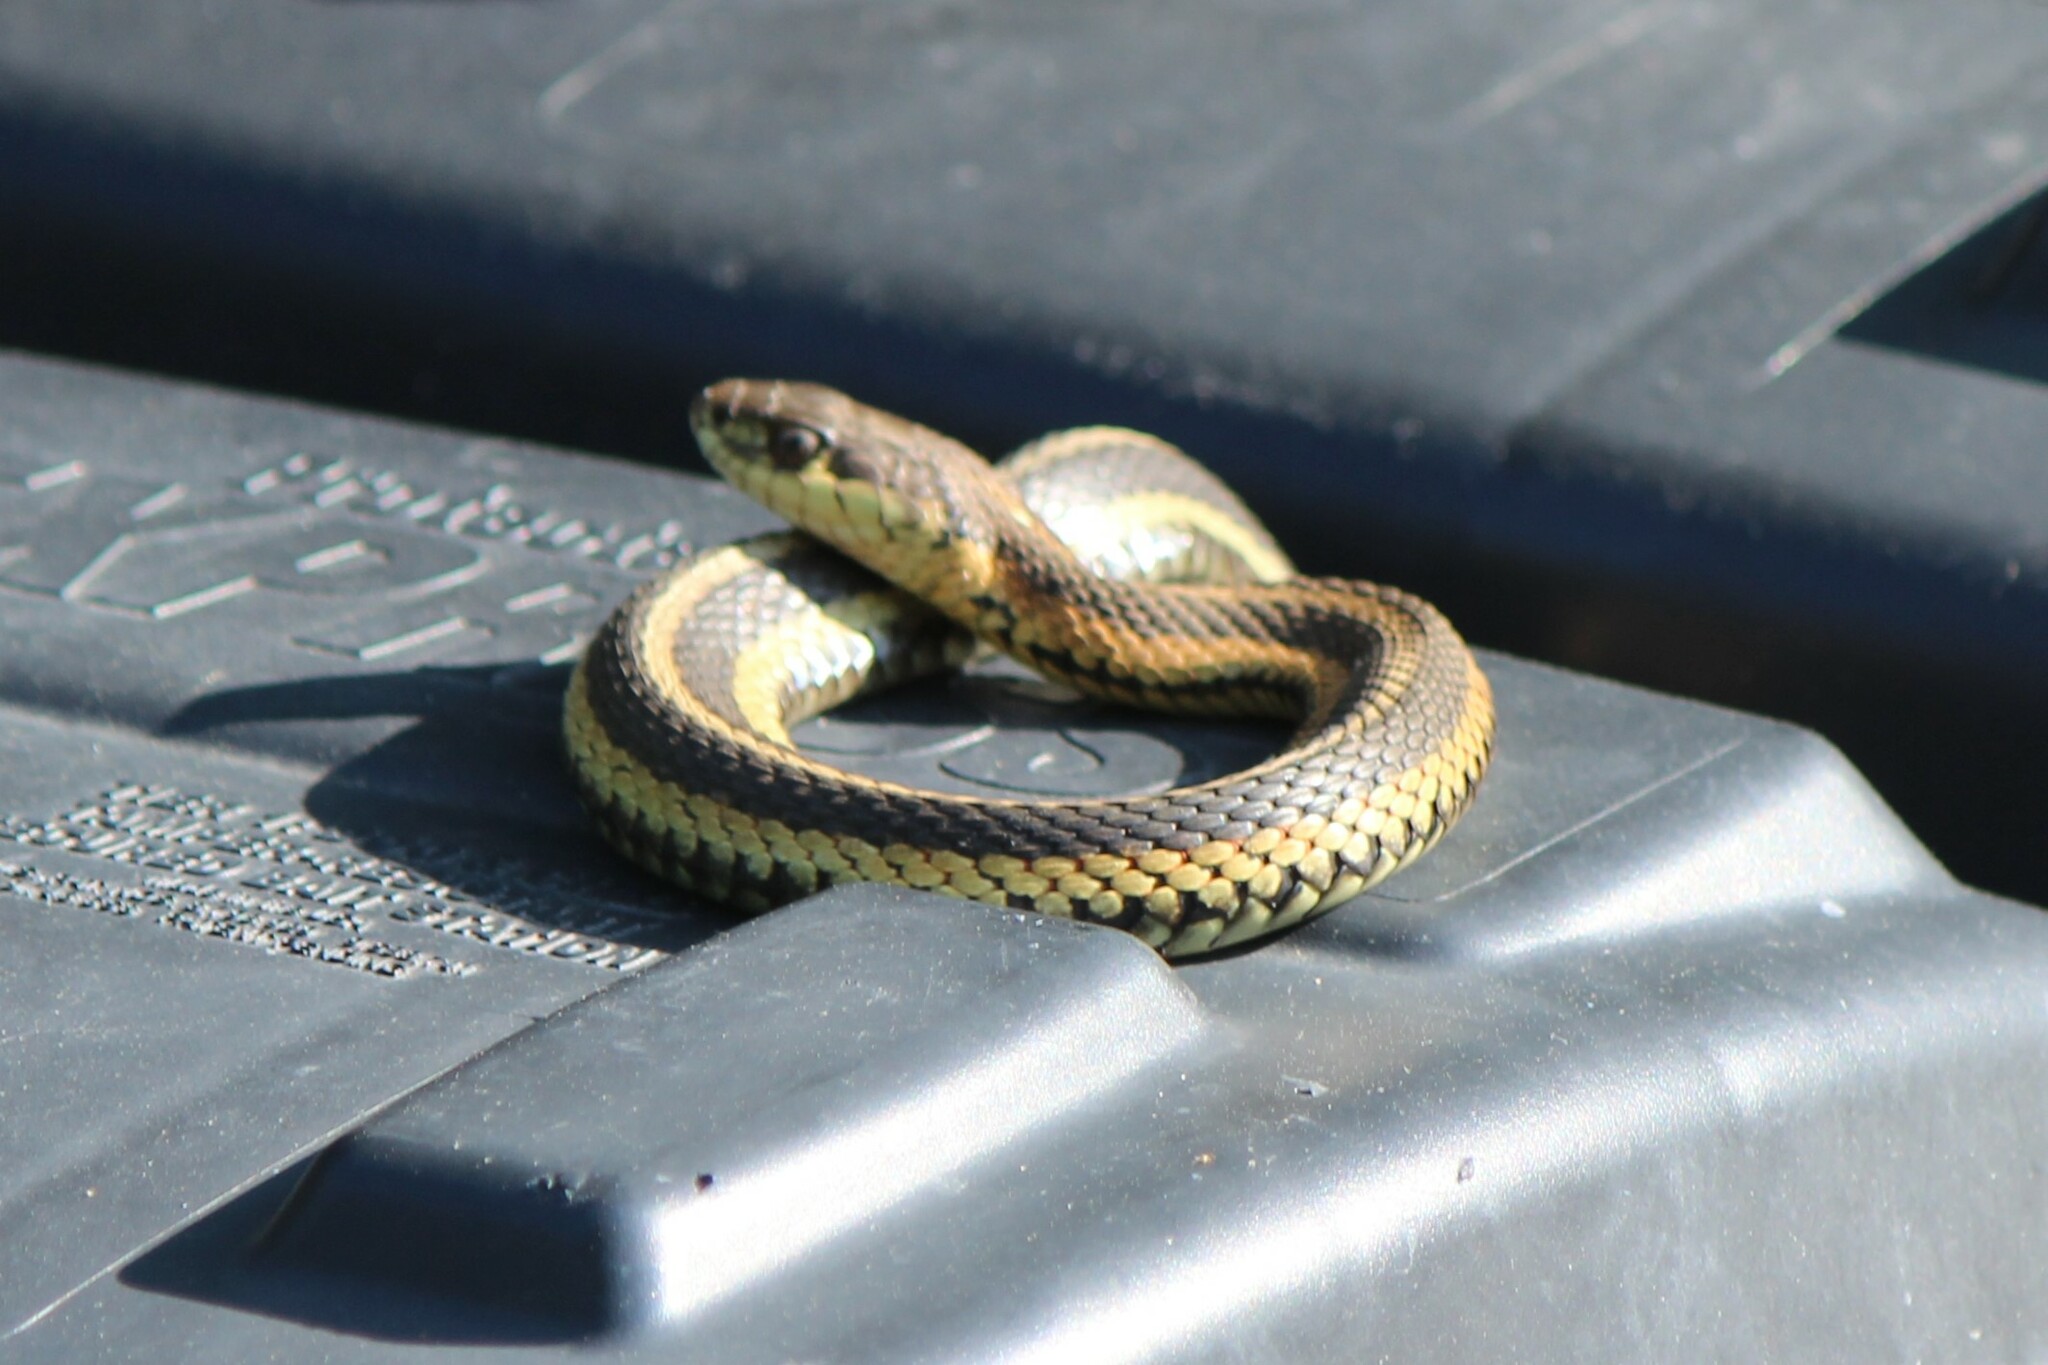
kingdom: Animalia
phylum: Chordata
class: Squamata
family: Colubridae
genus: Thamnophis
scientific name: Thamnophis sirtalis
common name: Common garter snake
